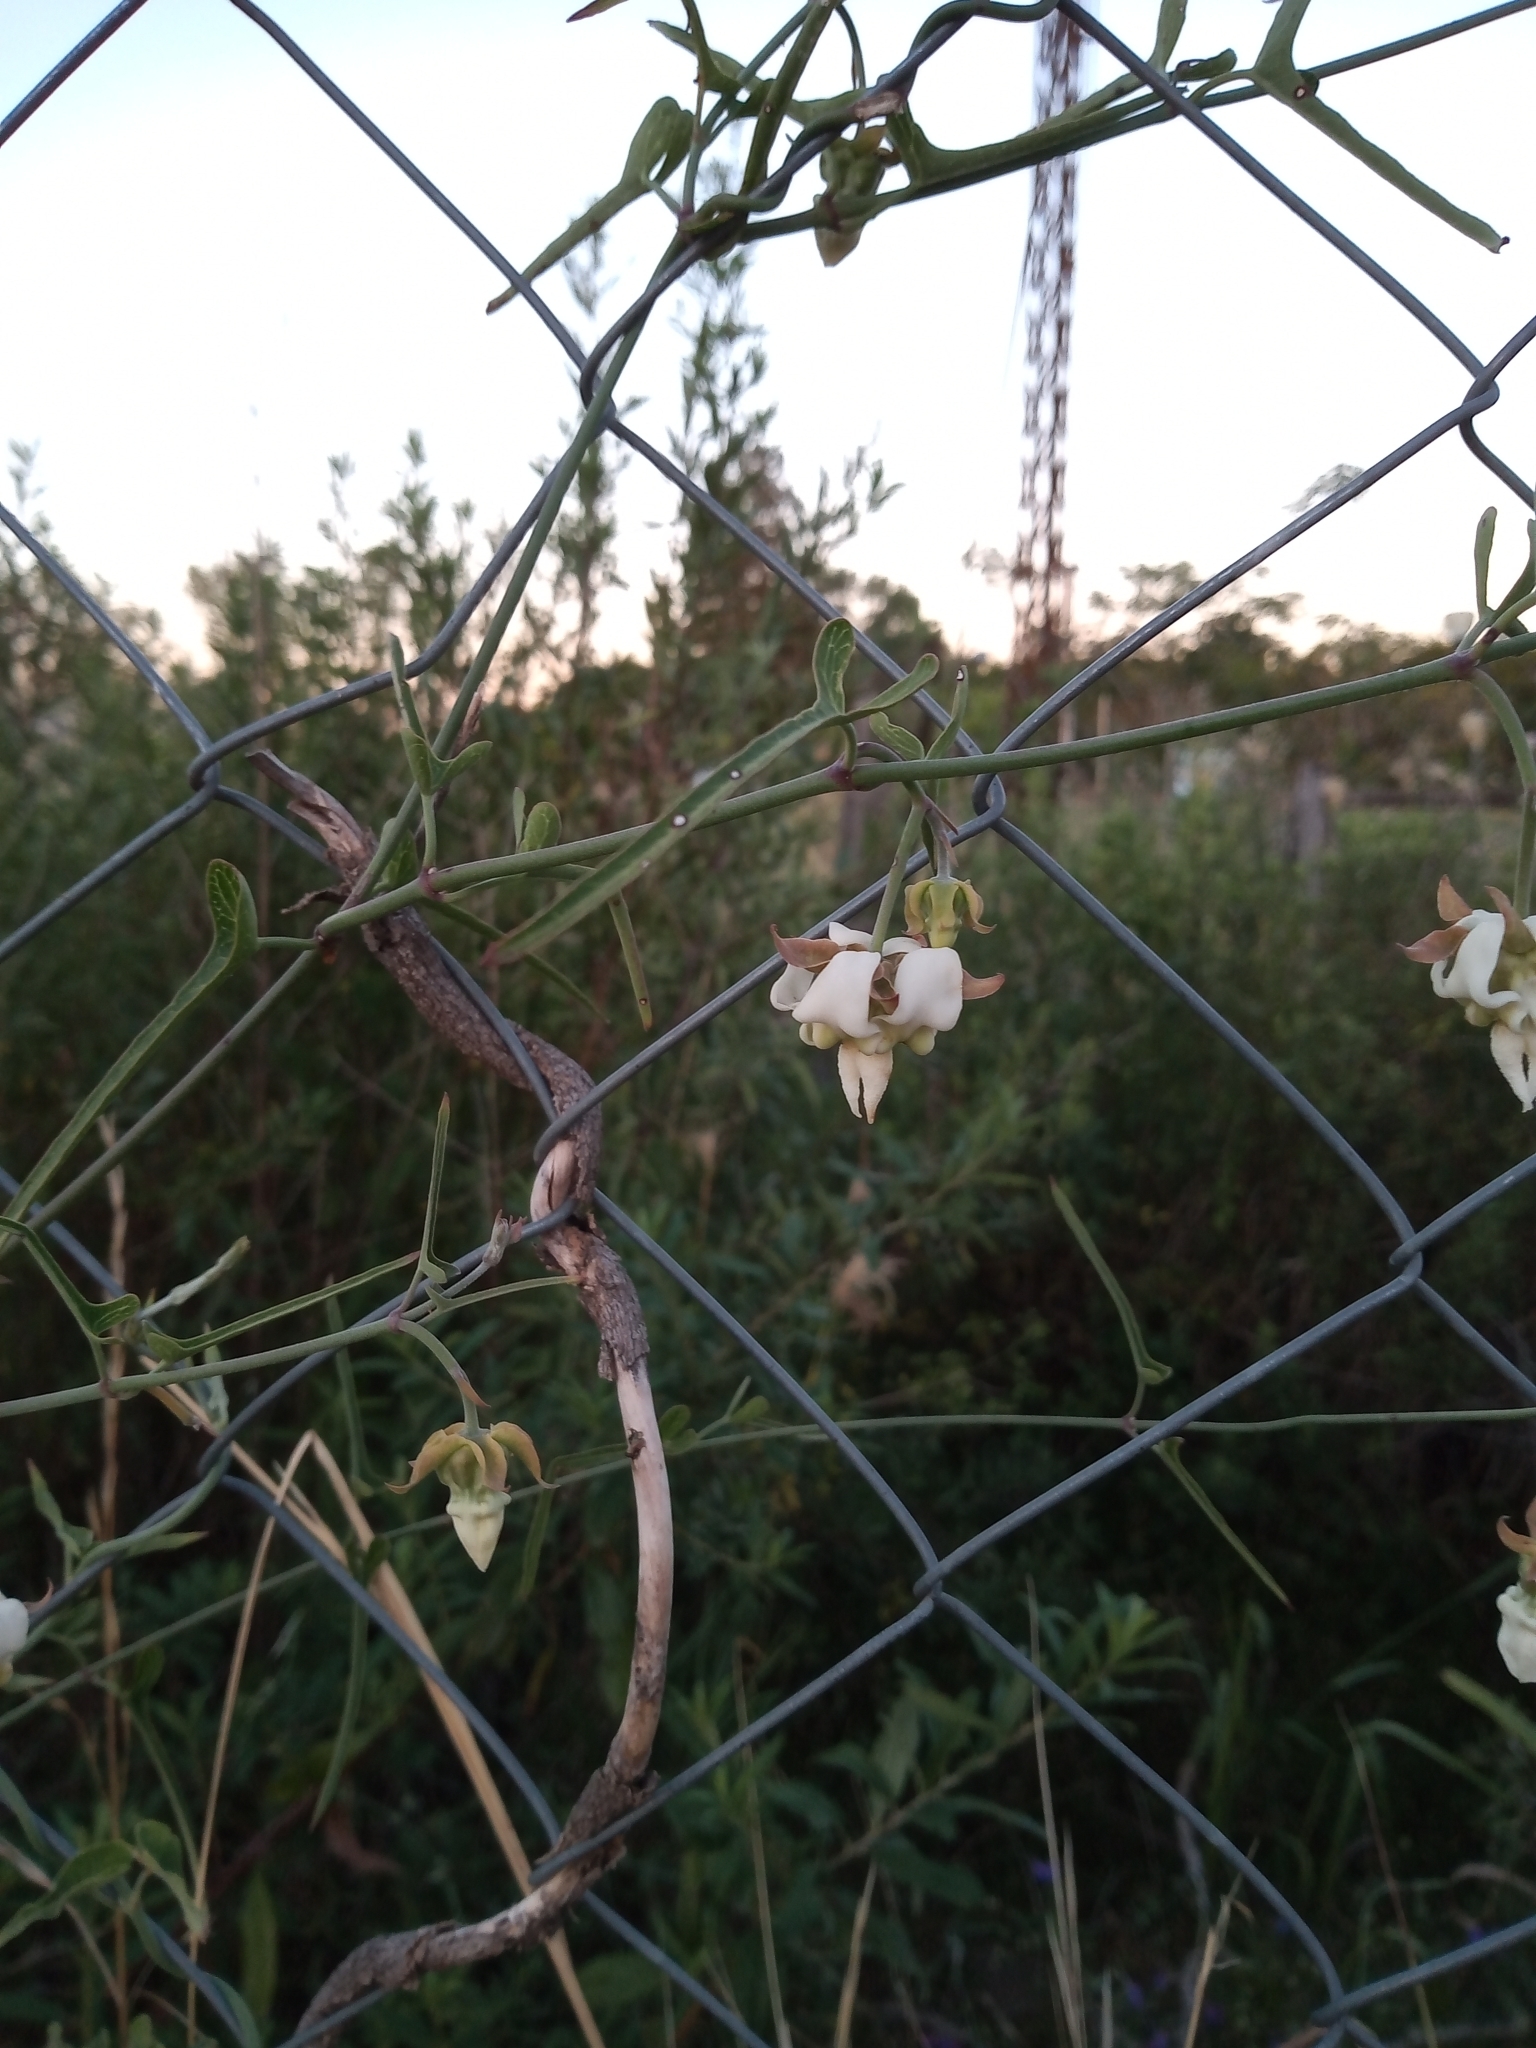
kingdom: Plantae
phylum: Tracheophyta
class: Magnoliopsida
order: Gentianales
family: Apocynaceae
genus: Araujia
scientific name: Araujia angustifolia
